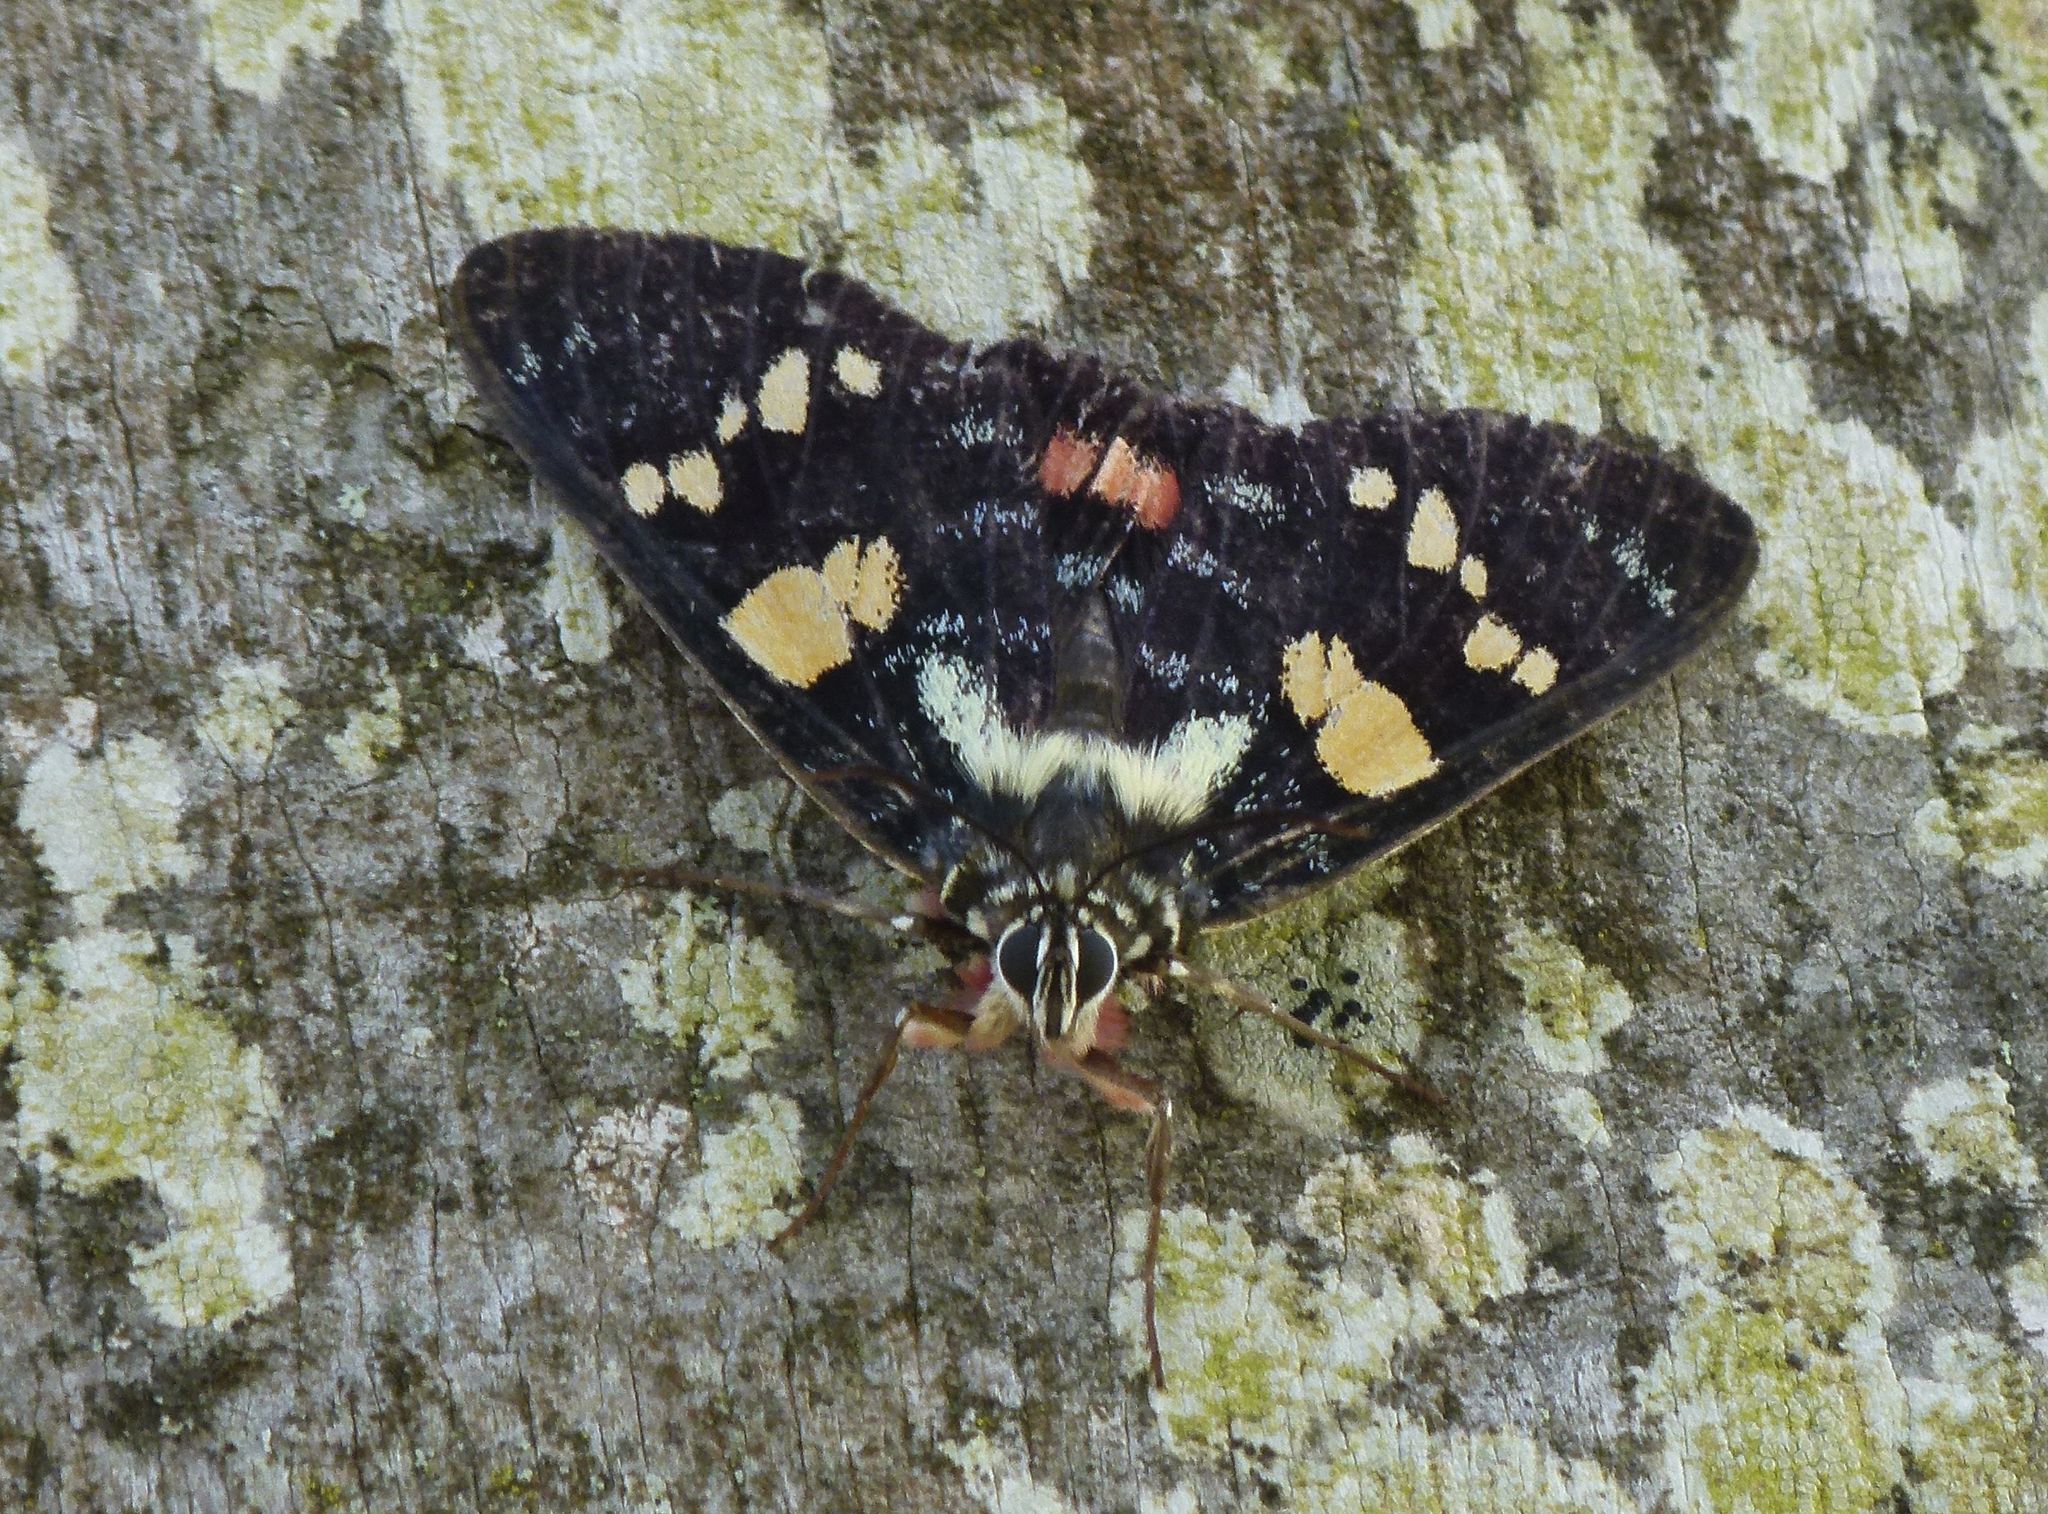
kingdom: Animalia
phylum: Arthropoda
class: Insecta
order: Lepidoptera
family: Noctuidae
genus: Agarista
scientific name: Agarista agricola
